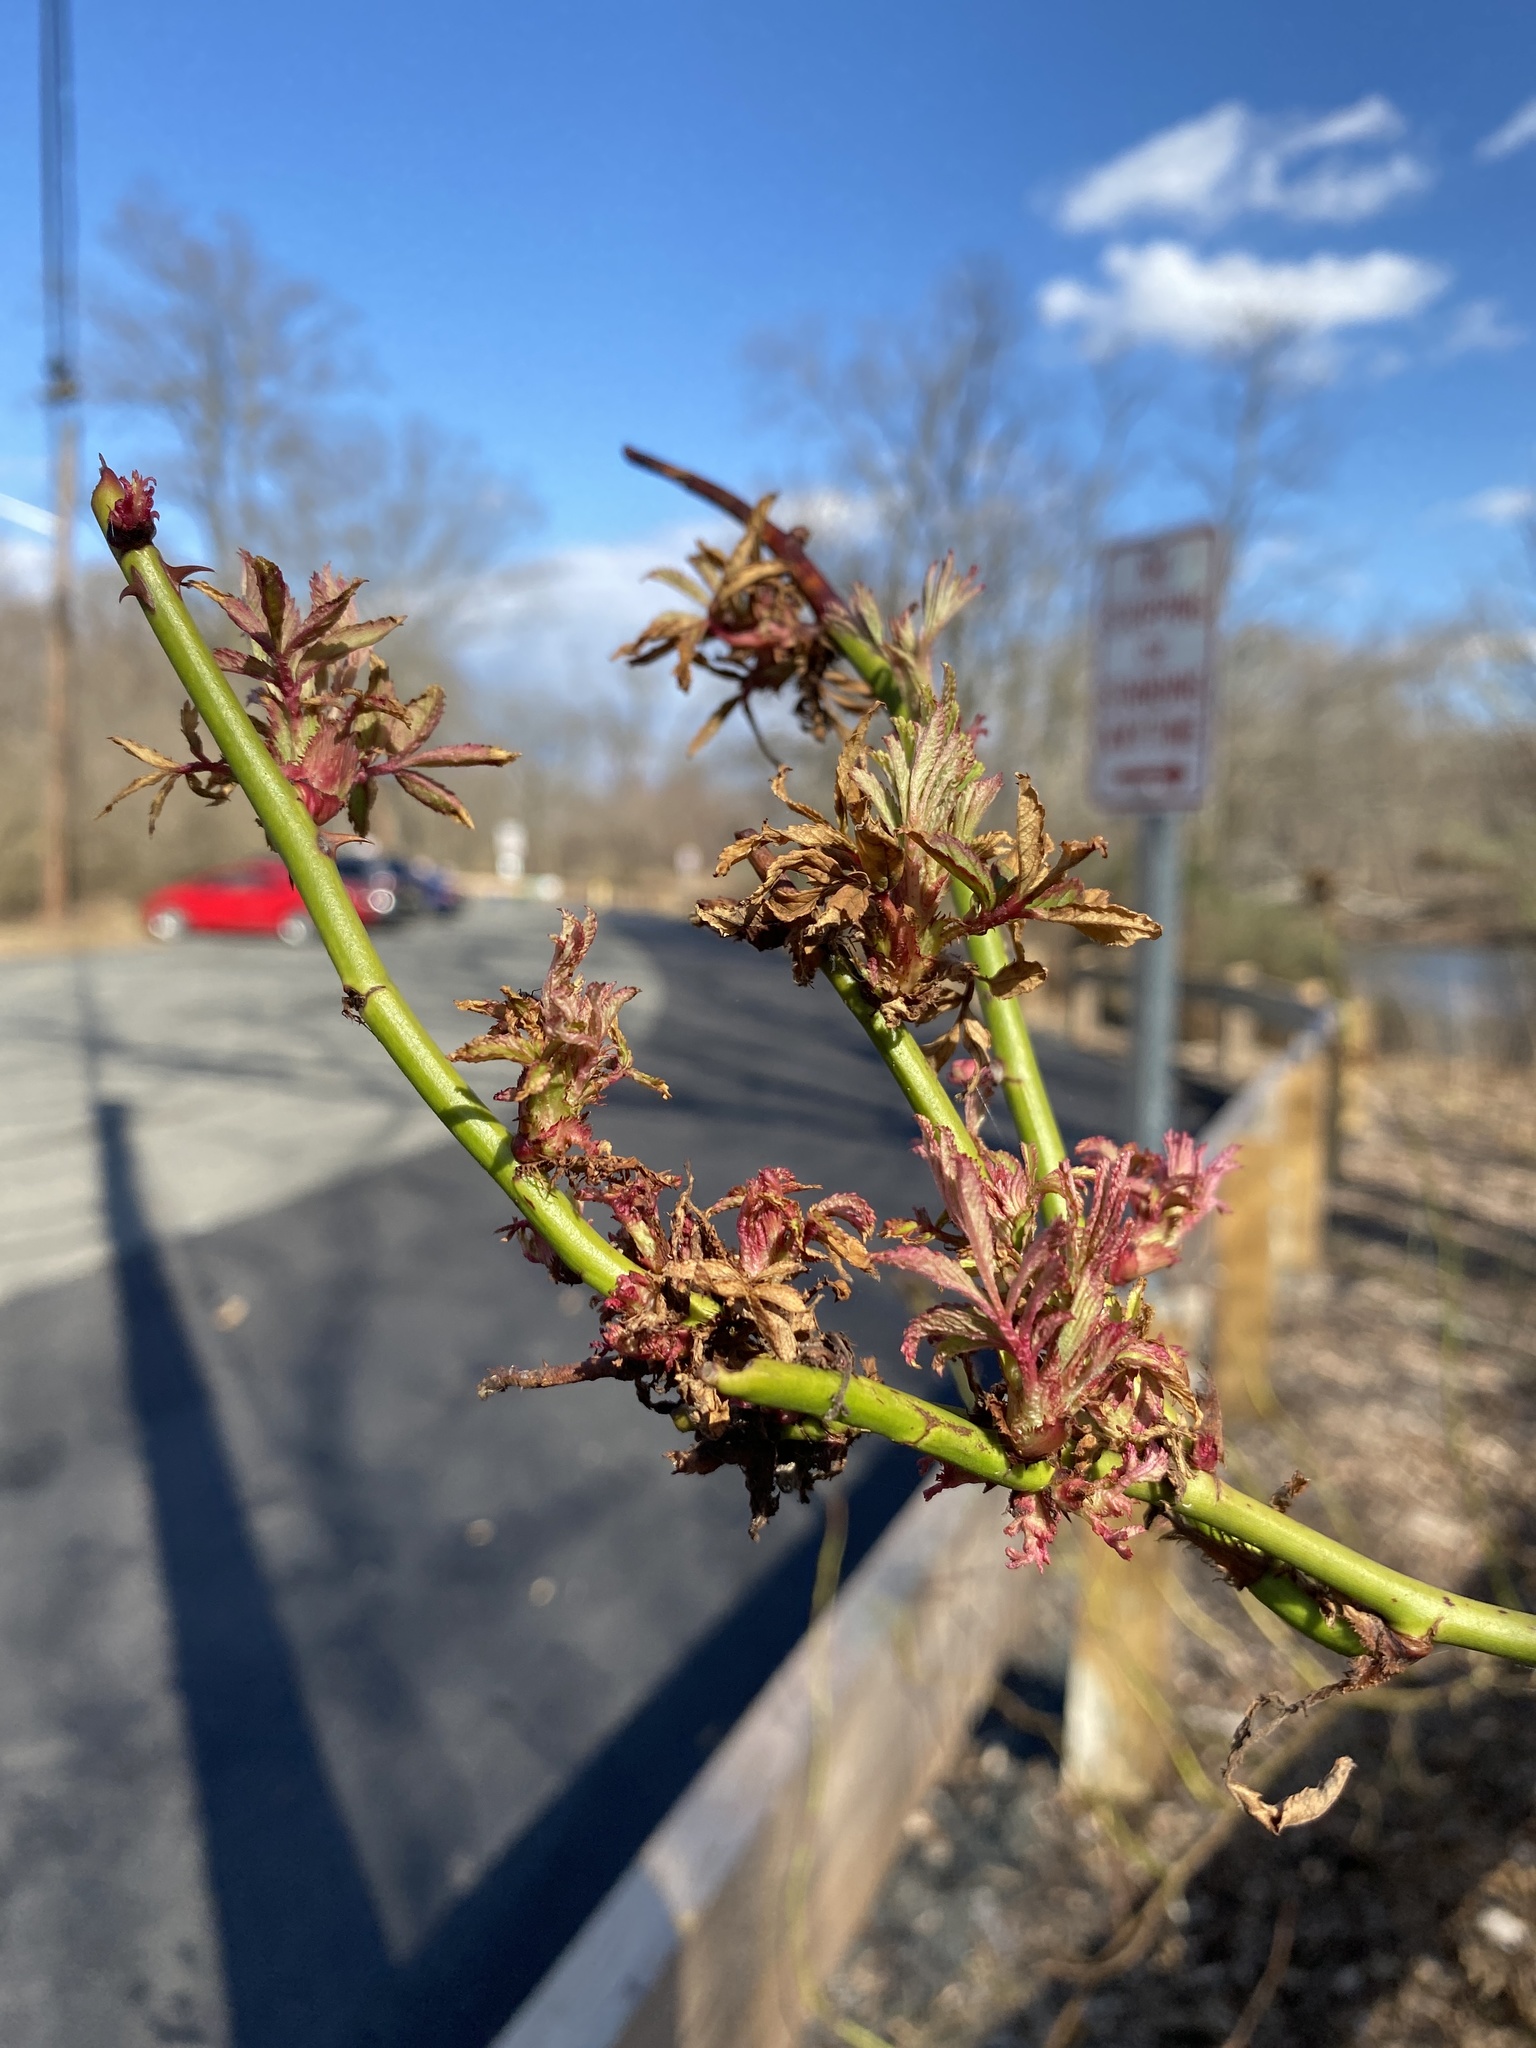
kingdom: Viruses
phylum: Negarnaviricota
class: Ellioviricetes
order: Bunyavirales
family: Fimoviridae
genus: Emaravirus
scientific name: Emaravirus rosae
